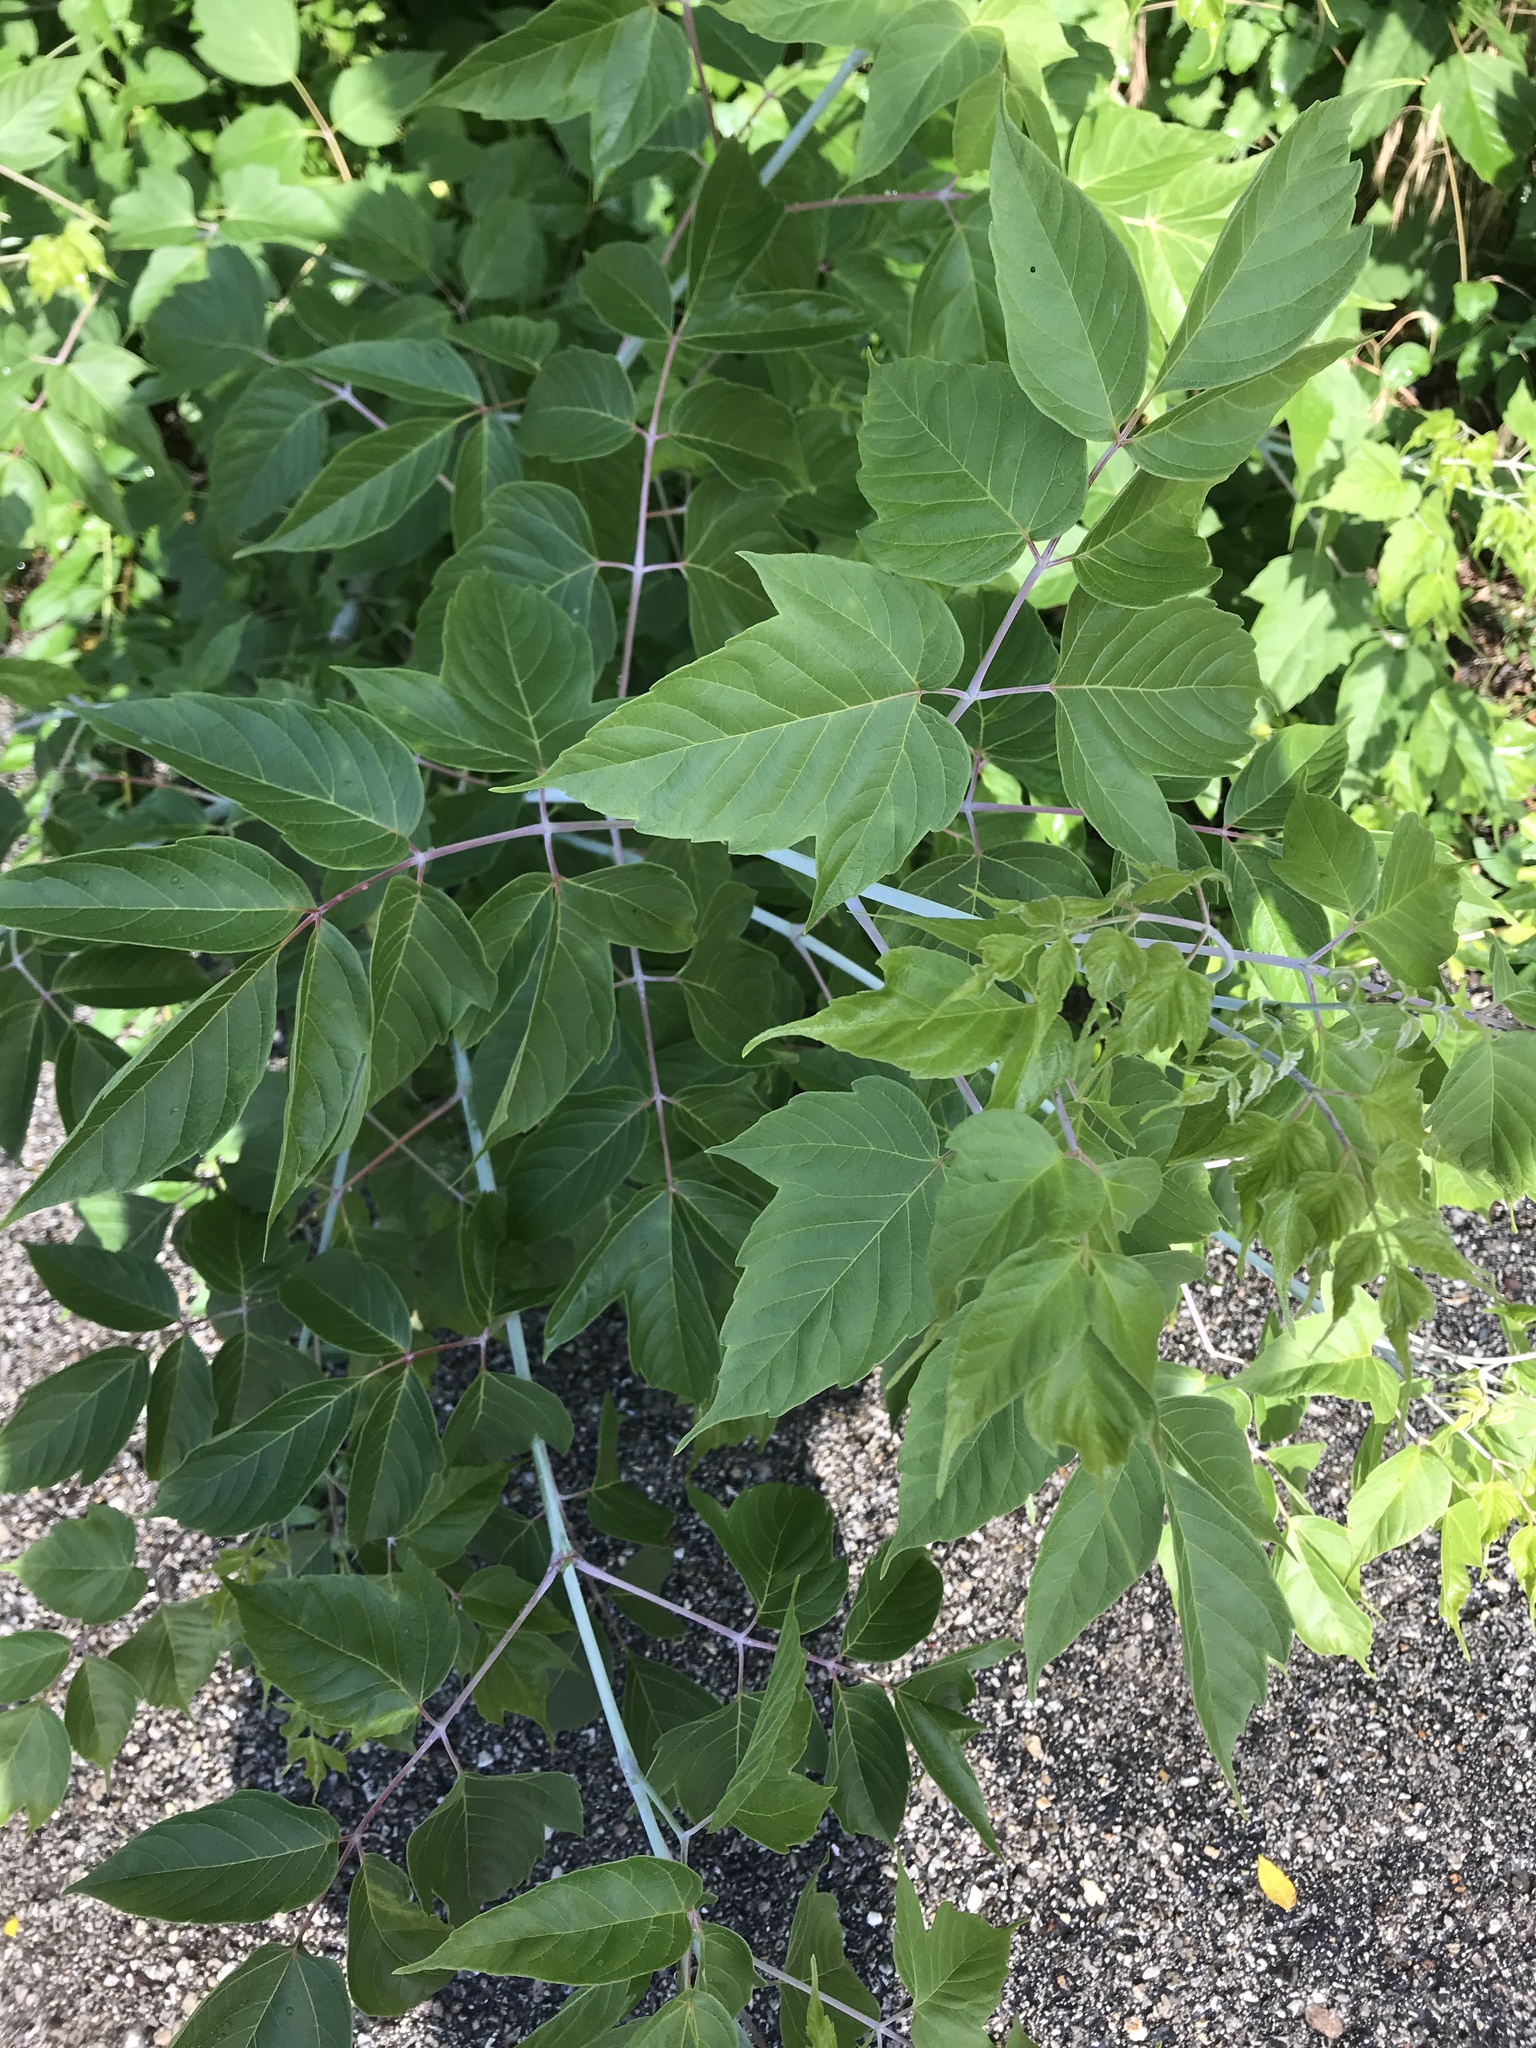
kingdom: Plantae
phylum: Tracheophyta
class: Magnoliopsida
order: Sapindales
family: Sapindaceae
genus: Acer
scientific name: Acer negundo
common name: Ashleaf maple
